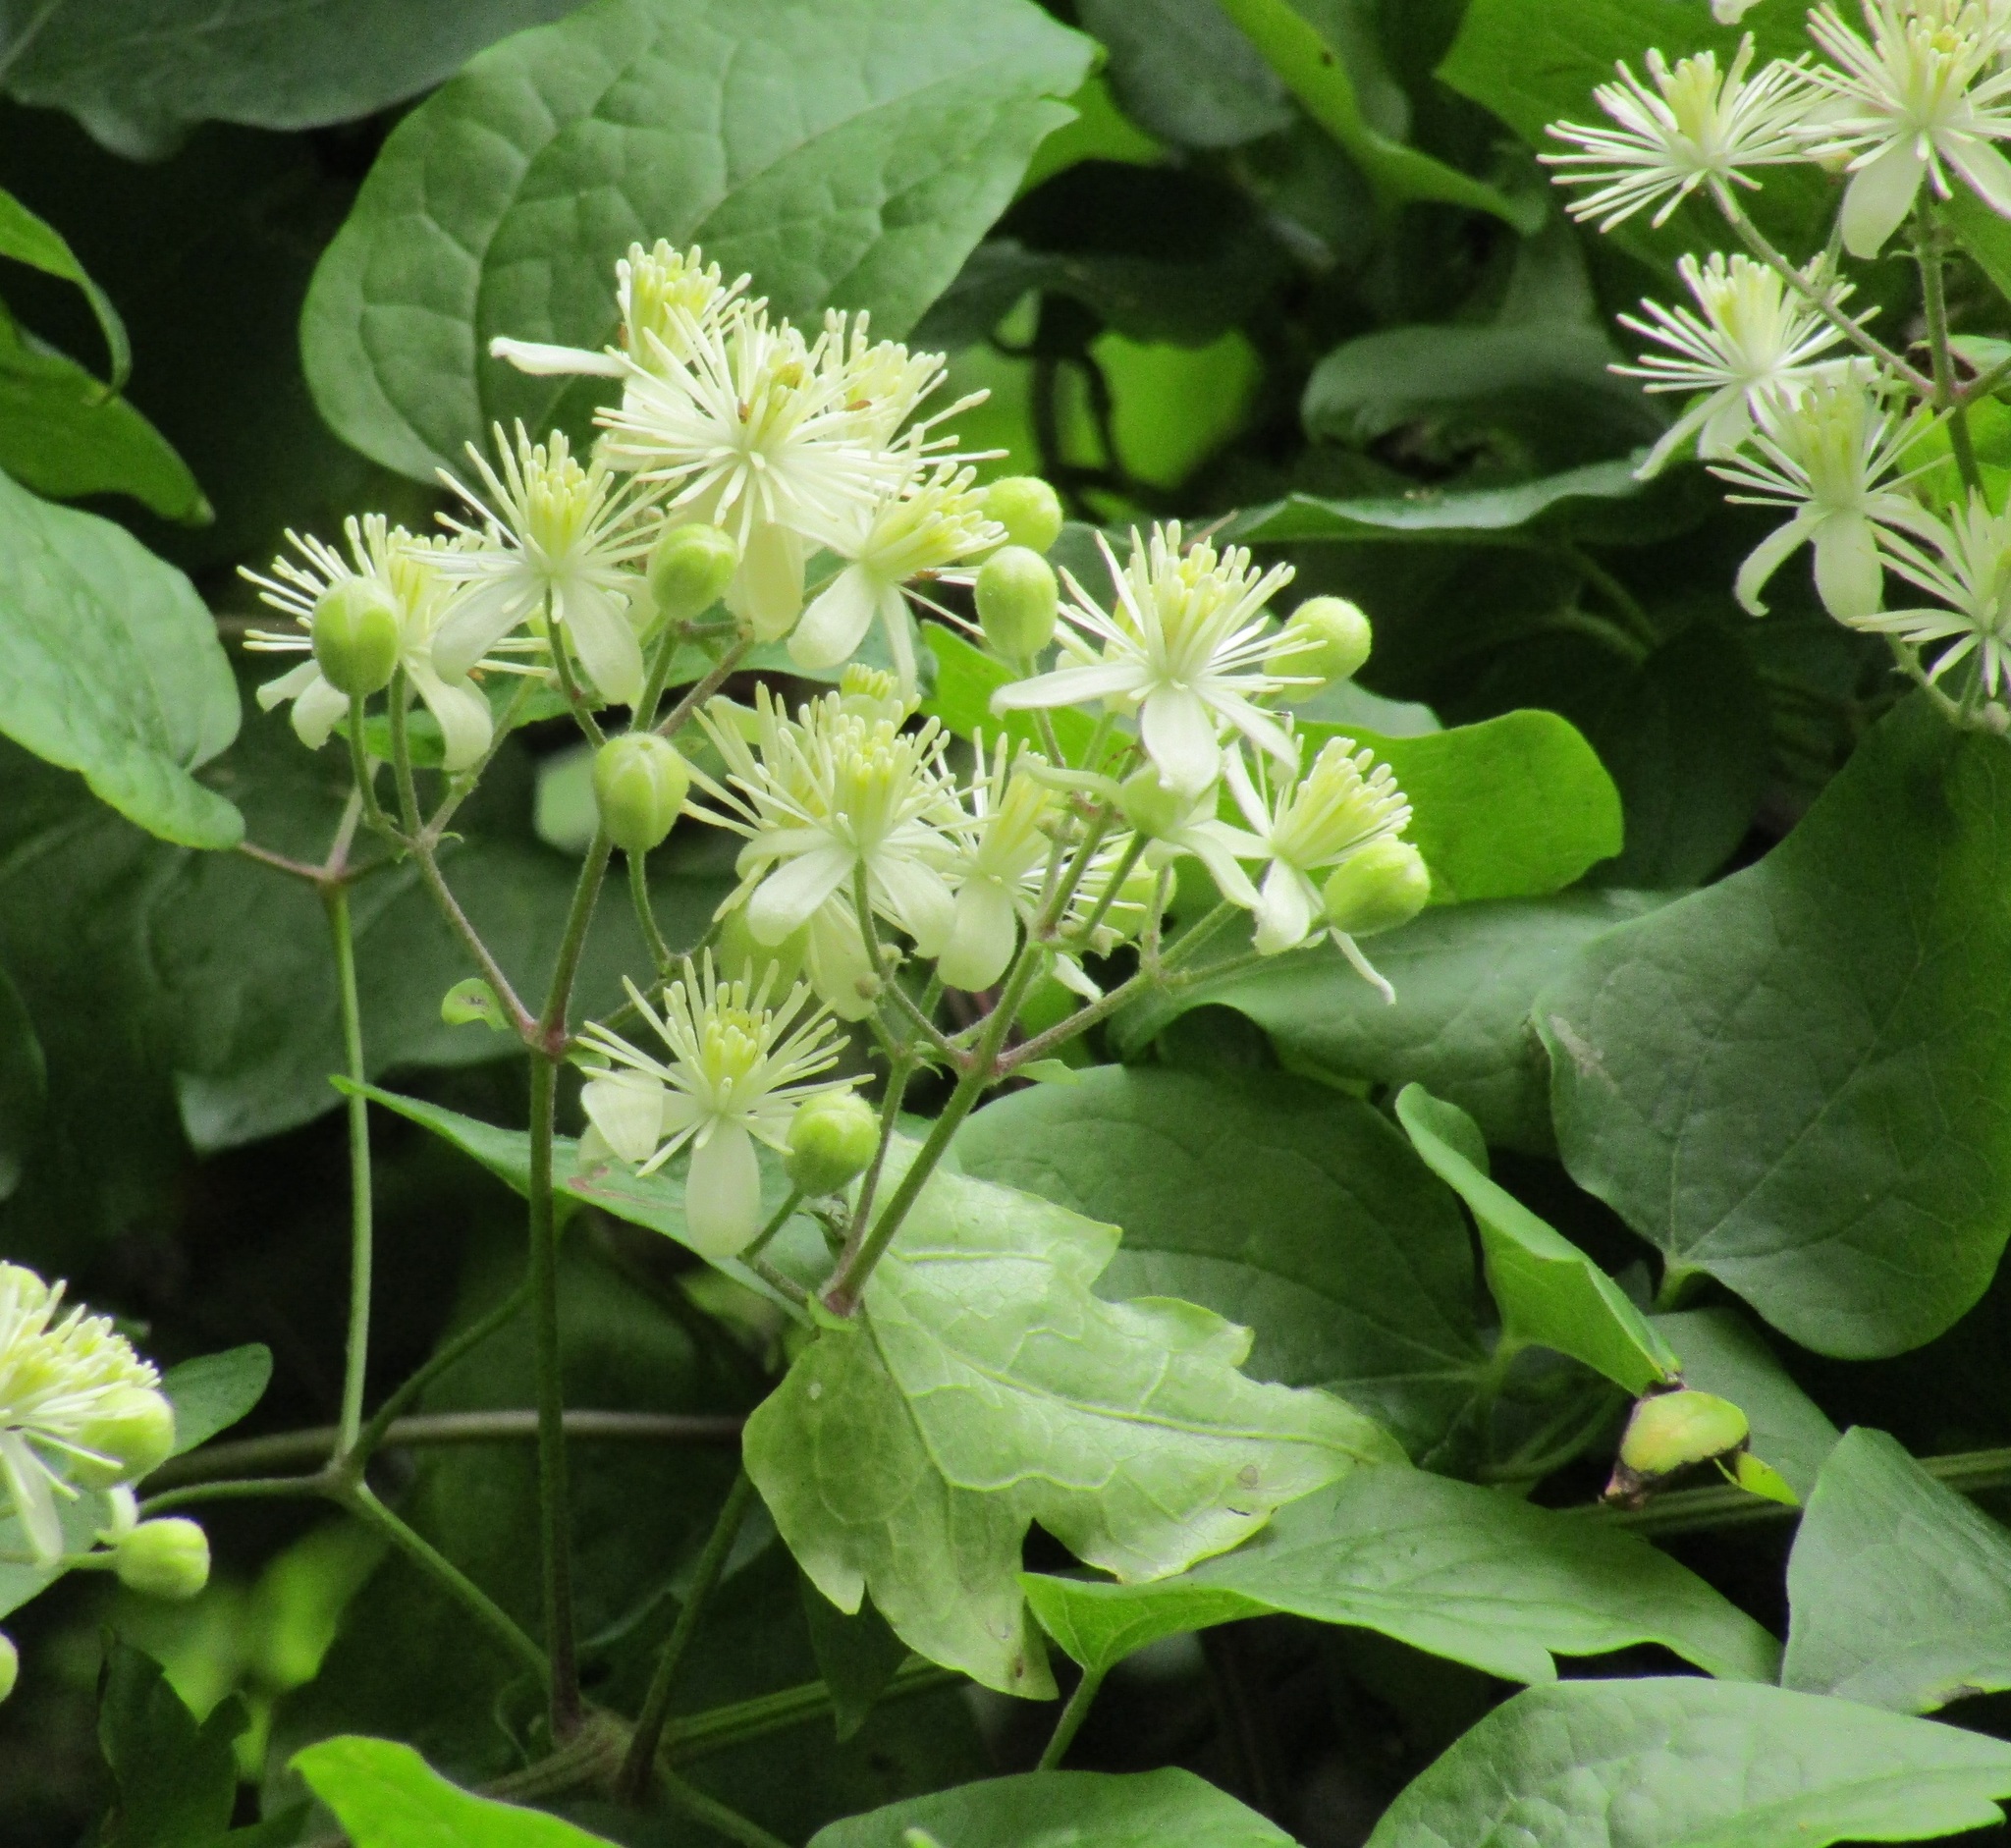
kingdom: Plantae
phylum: Tracheophyta
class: Magnoliopsida
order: Ranunculales
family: Ranunculaceae
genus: Clematis
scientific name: Clematis vitalba
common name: Evergreen clematis
